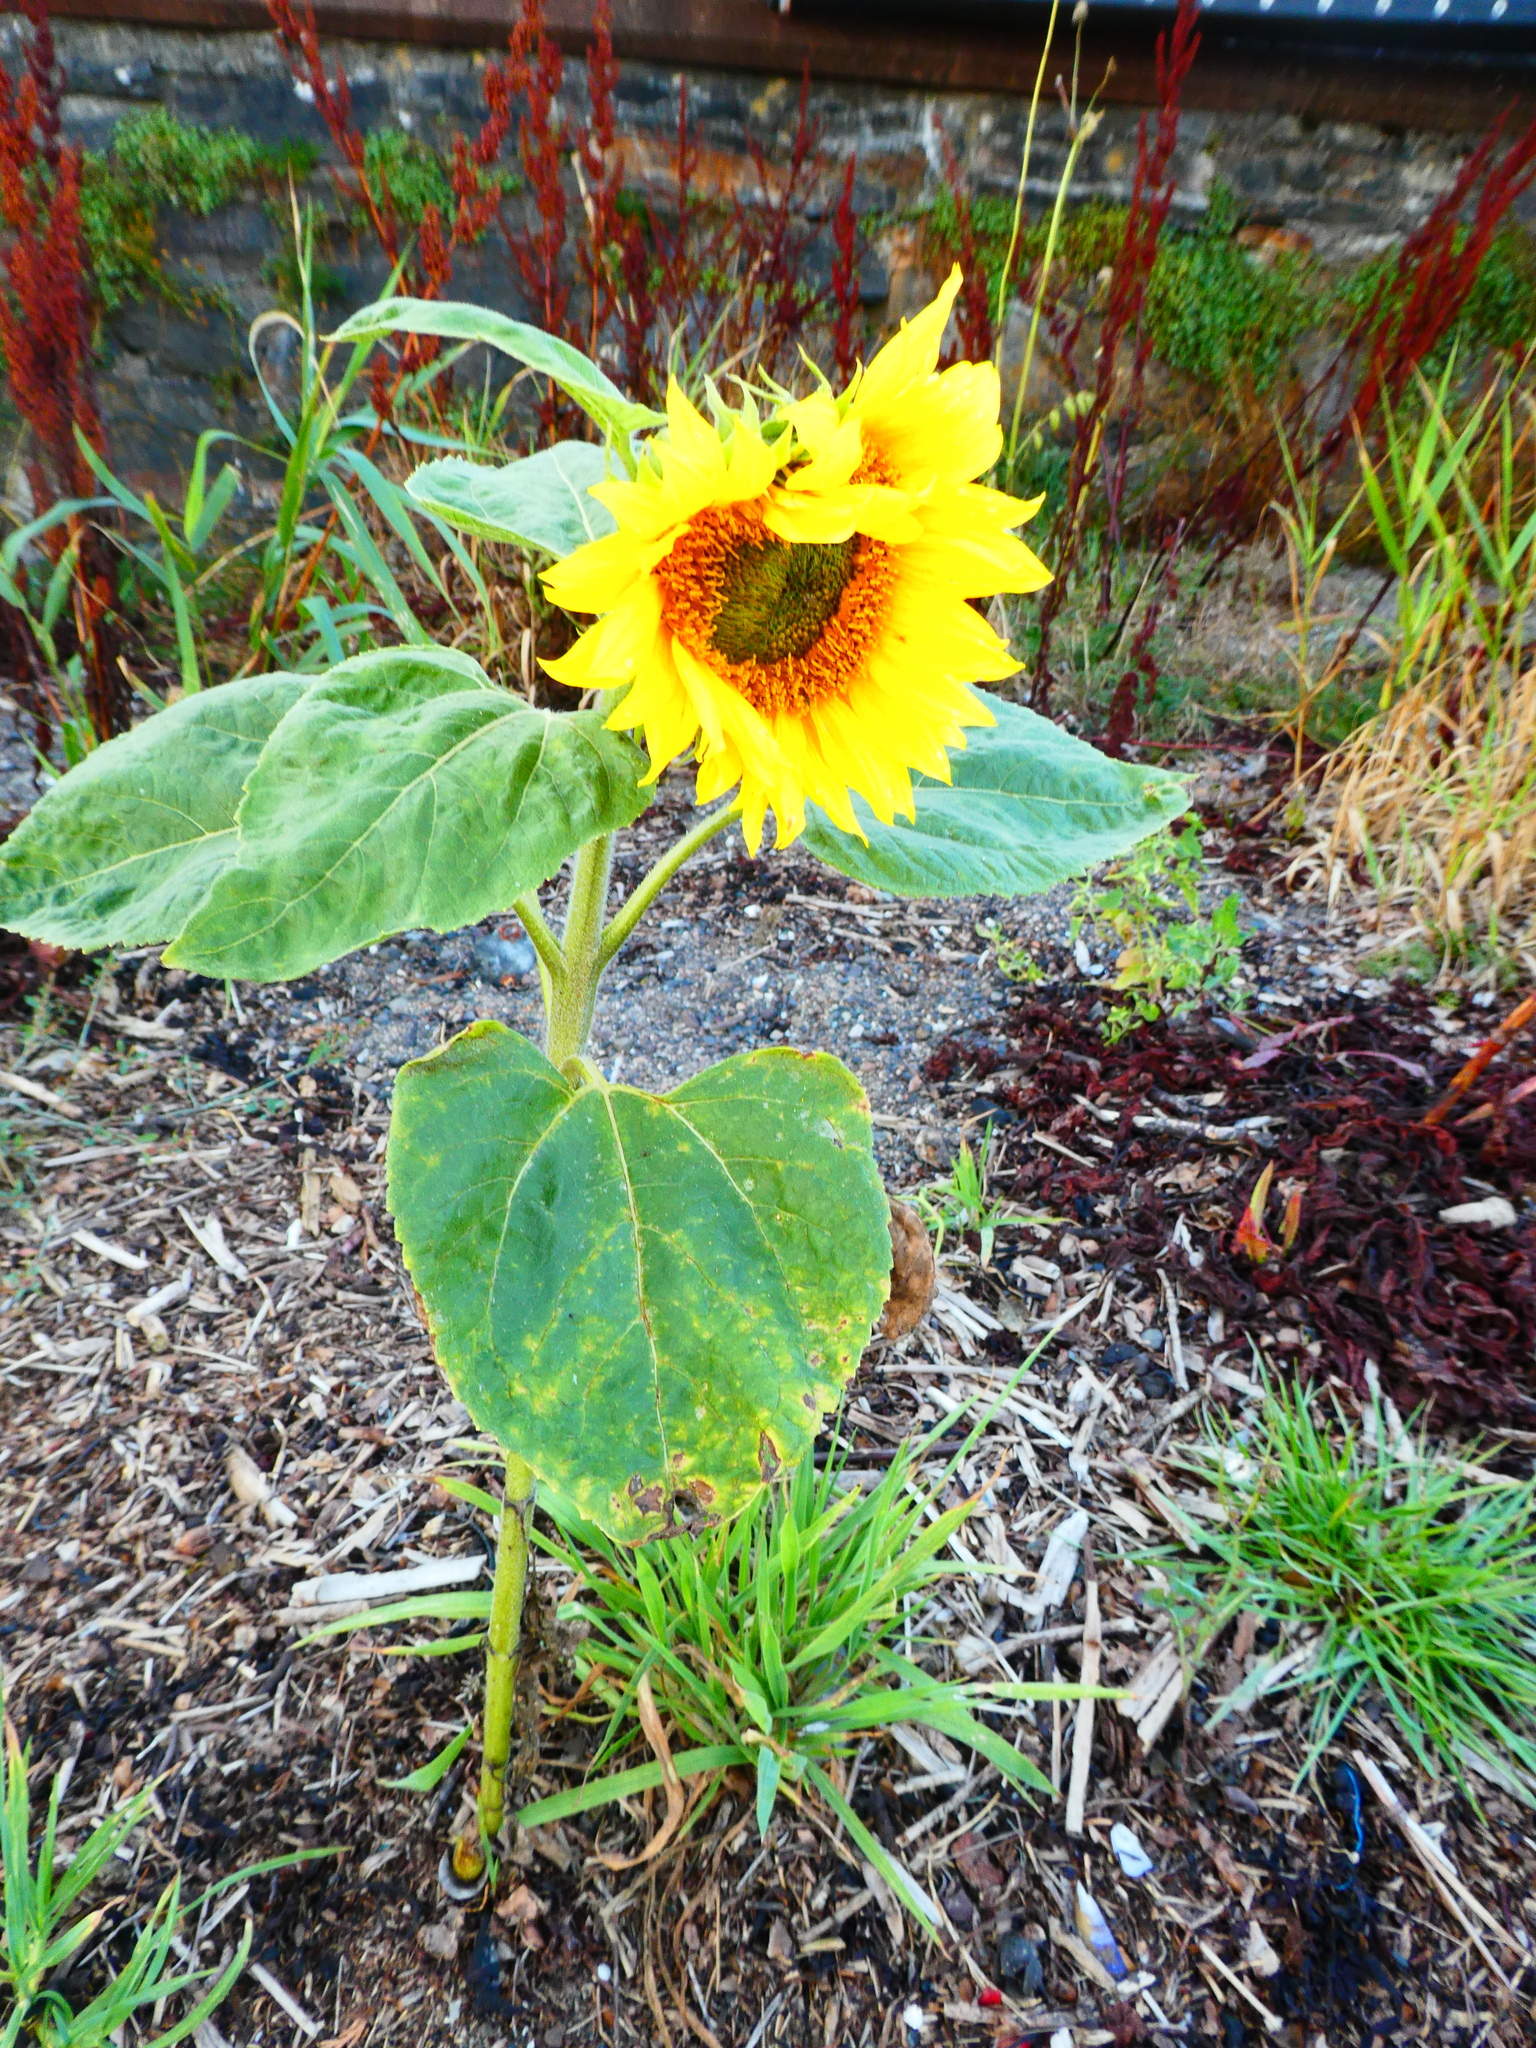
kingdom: Plantae
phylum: Tracheophyta
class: Magnoliopsida
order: Asterales
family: Asteraceae
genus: Helianthus
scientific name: Helianthus annuus
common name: Sunflower
